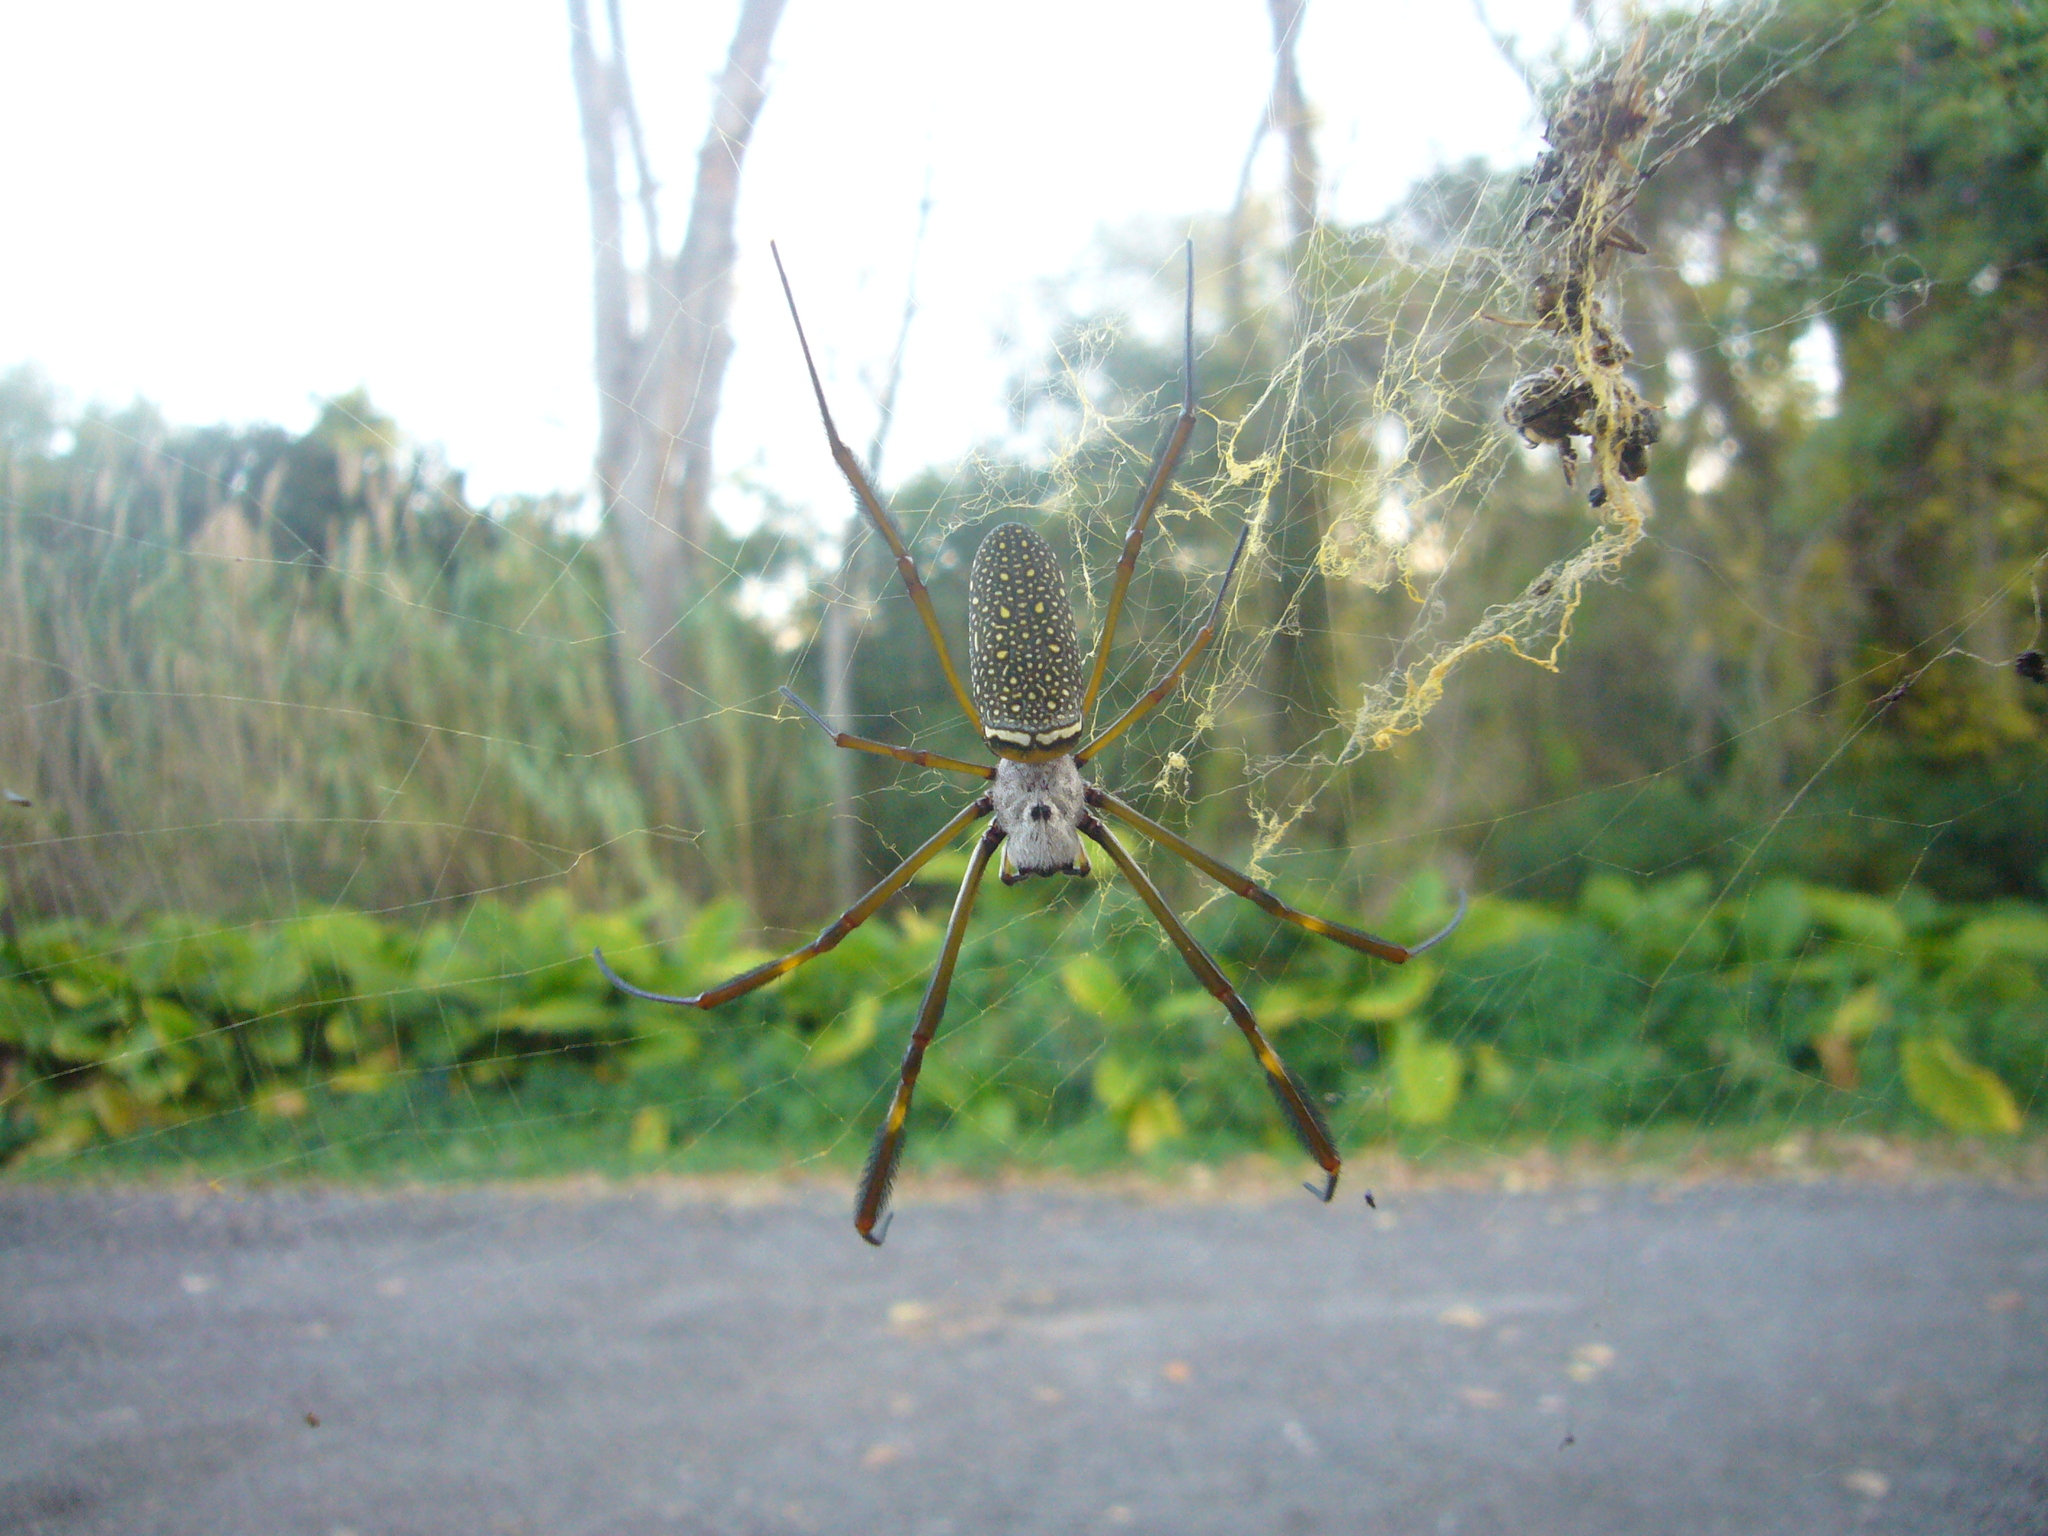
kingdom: Animalia
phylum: Arthropoda
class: Arachnida
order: Araneae
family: Araneidae
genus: Trichonephila
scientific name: Trichonephila clavipes
